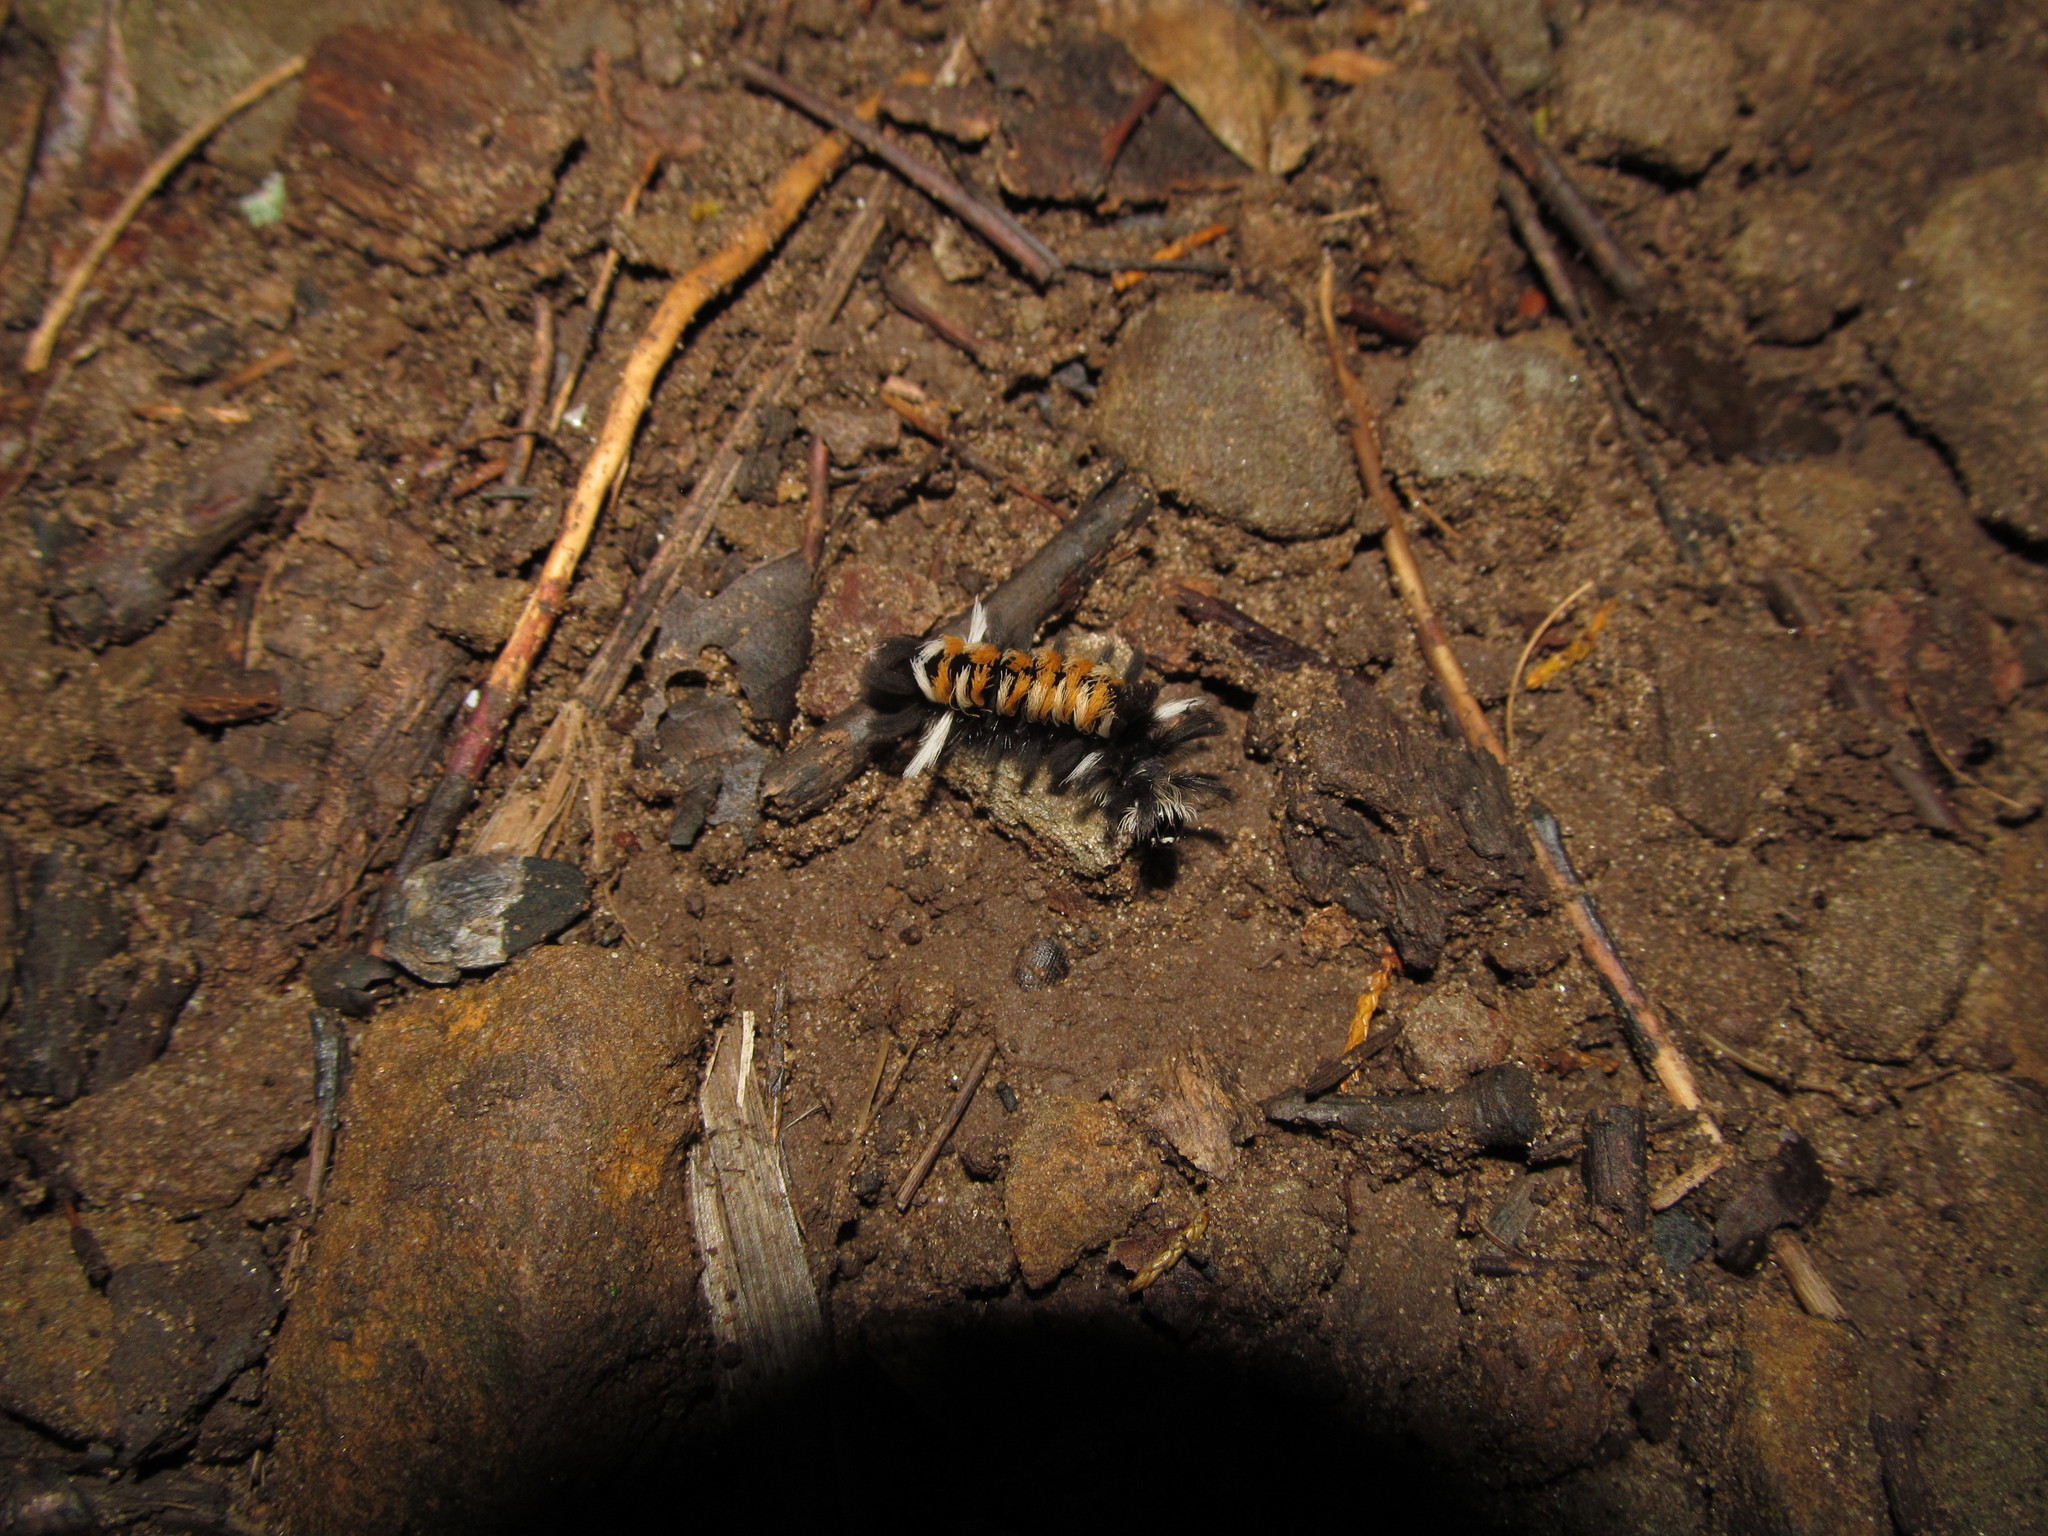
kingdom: Animalia
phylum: Arthropoda
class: Insecta
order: Lepidoptera
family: Erebidae
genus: Euchaetes
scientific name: Euchaetes egle
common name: Milkweed tussock moth
